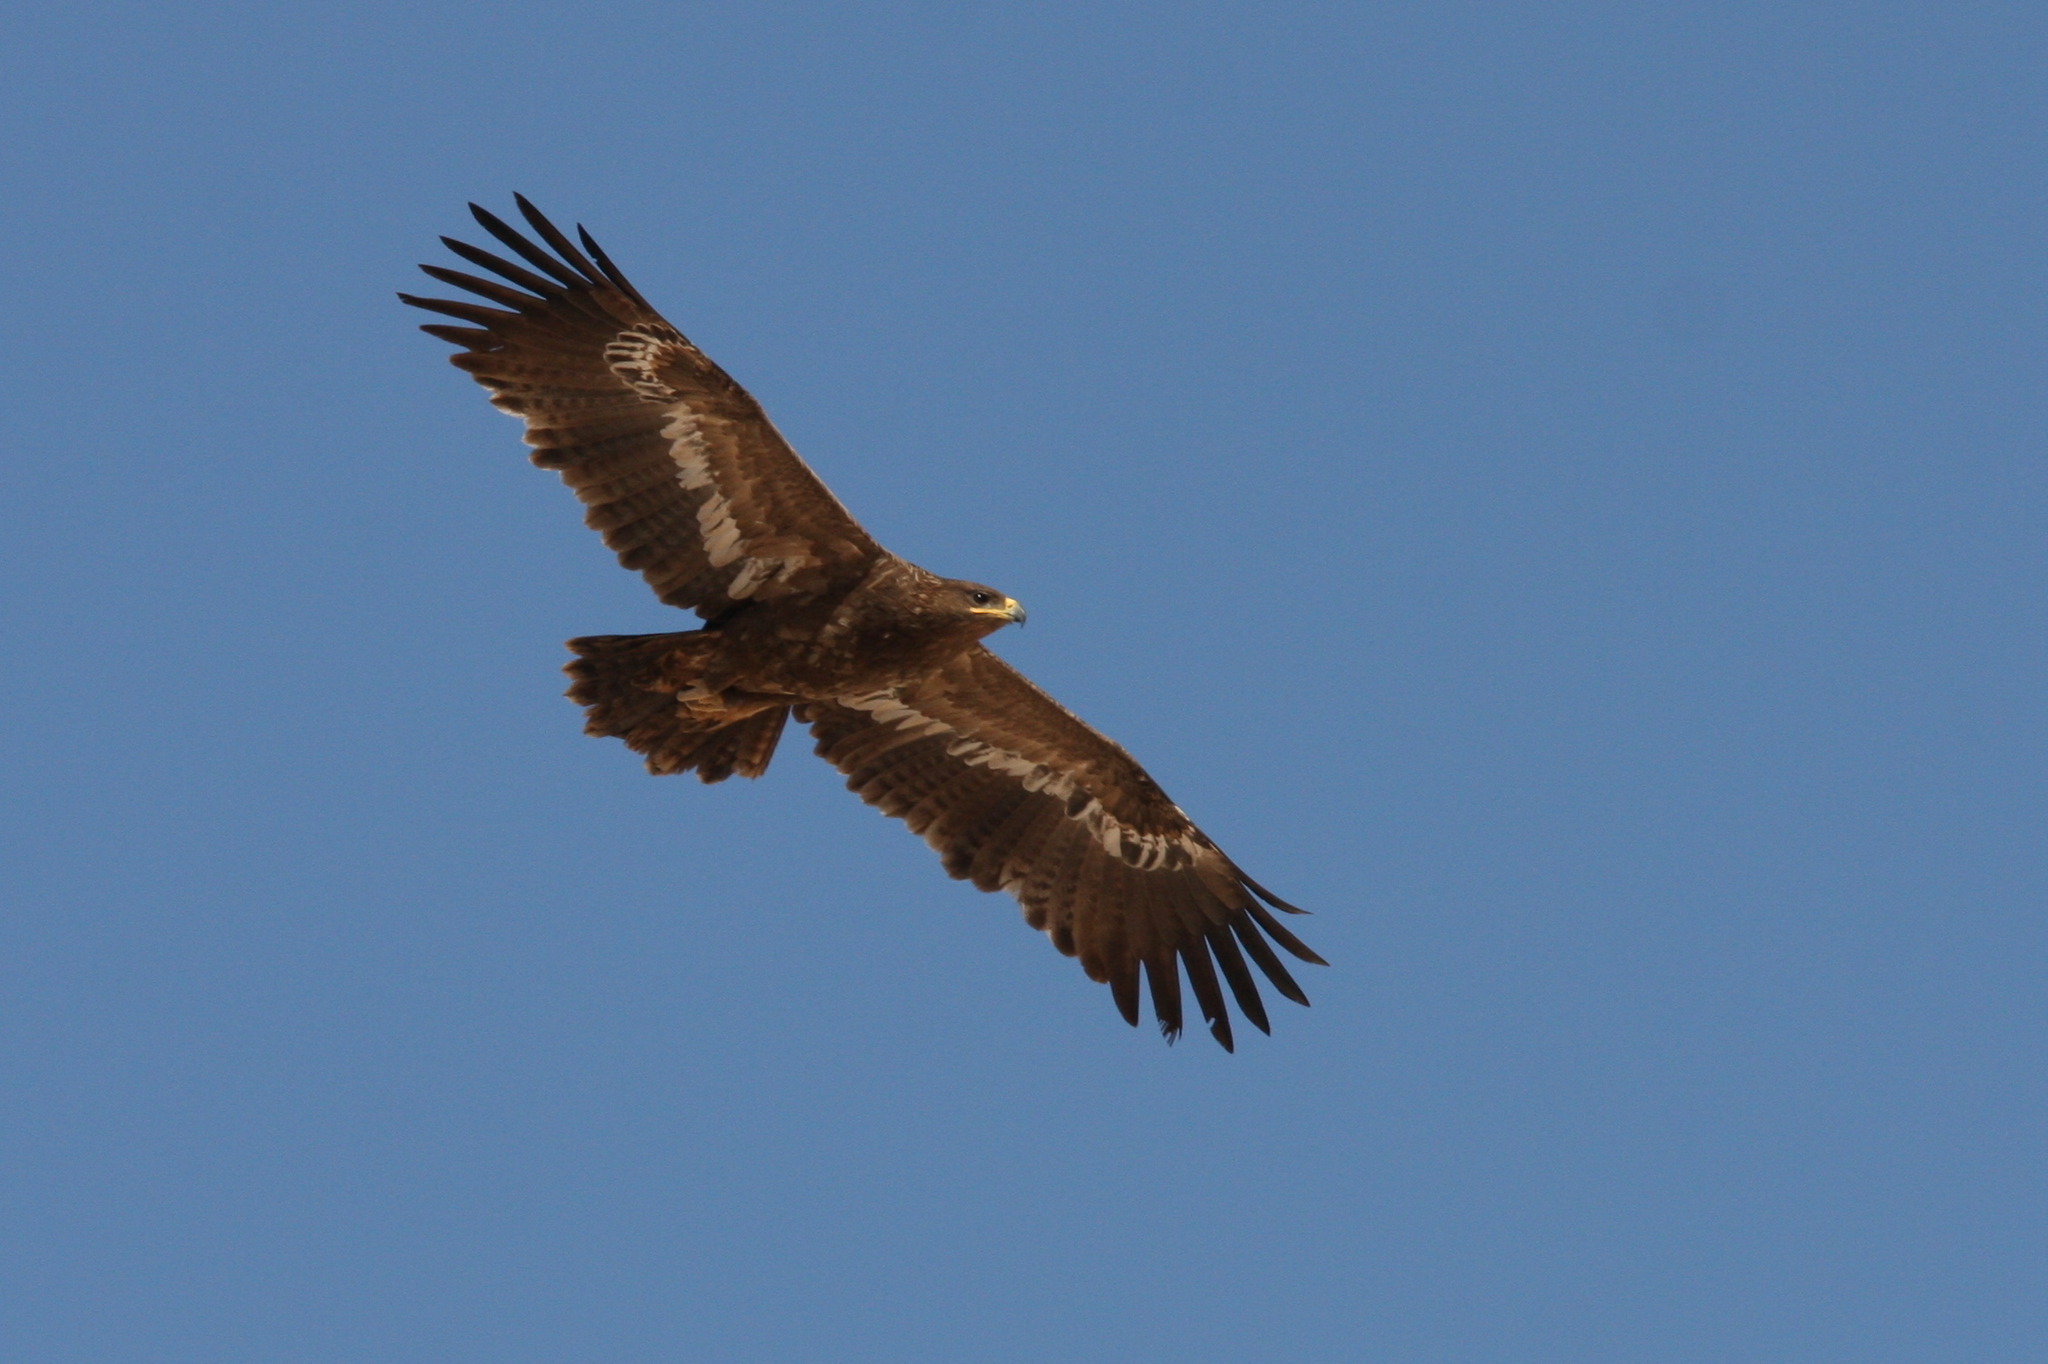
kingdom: Animalia
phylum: Chordata
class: Aves
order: Accipitriformes
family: Accipitridae
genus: Aquila
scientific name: Aquila nipalensis
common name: Steppe eagle
